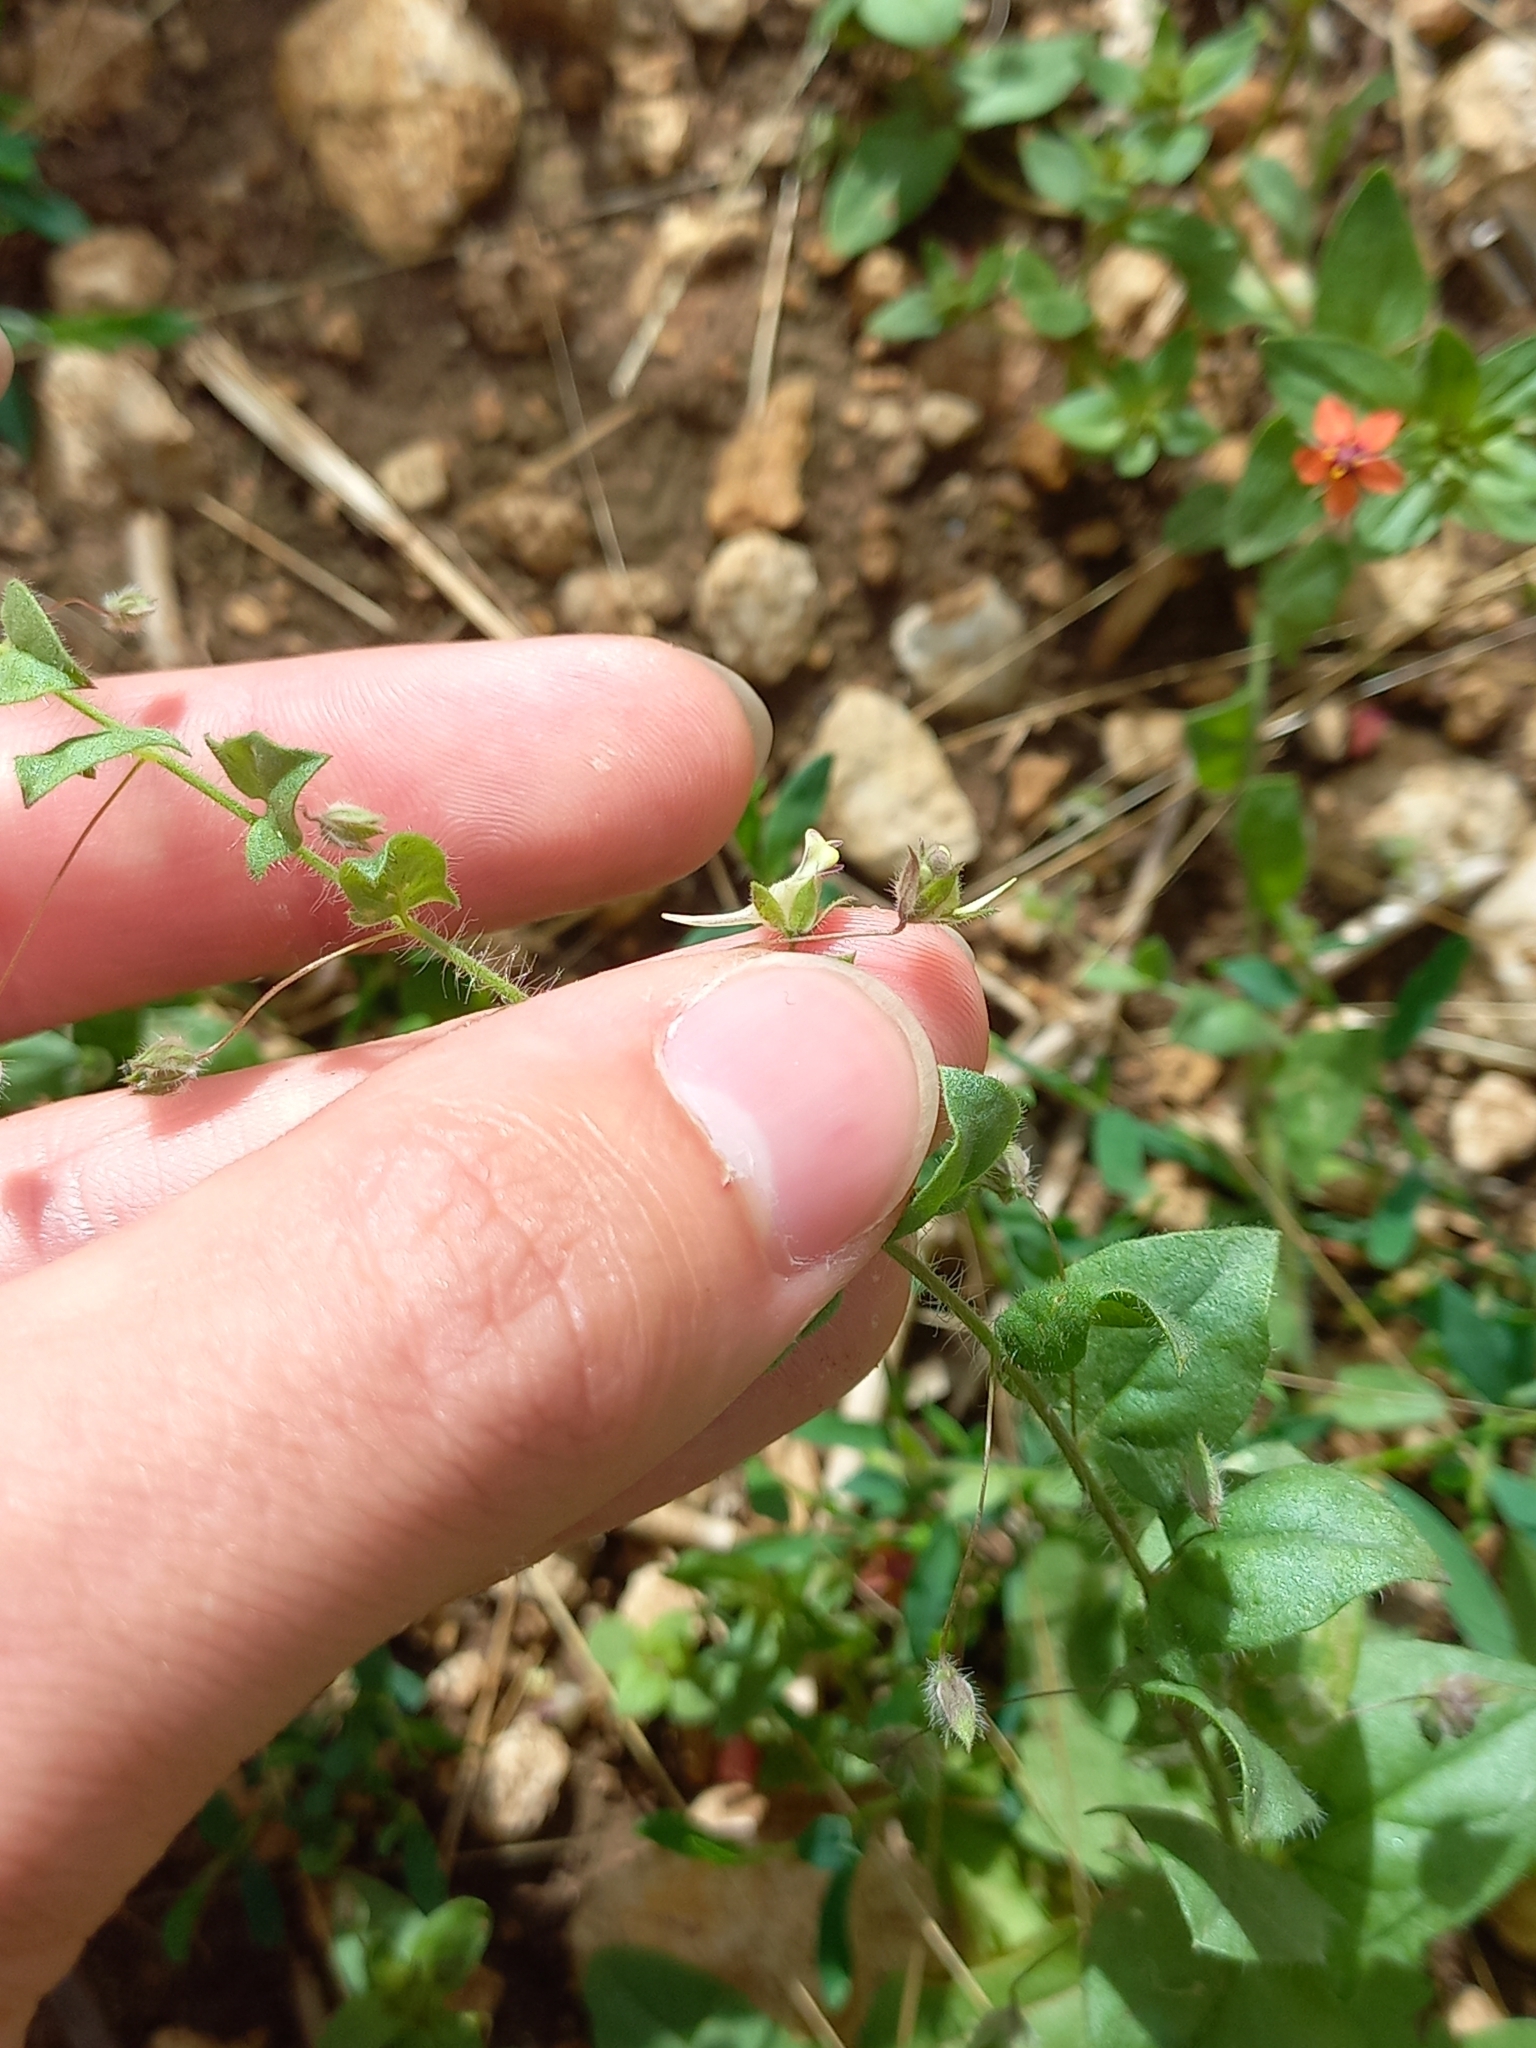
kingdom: Plantae
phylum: Tracheophyta
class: Magnoliopsida
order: Lamiales
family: Plantaginaceae
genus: Kickxia
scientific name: Kickxia elatine
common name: Sharp-leaved fluellen
